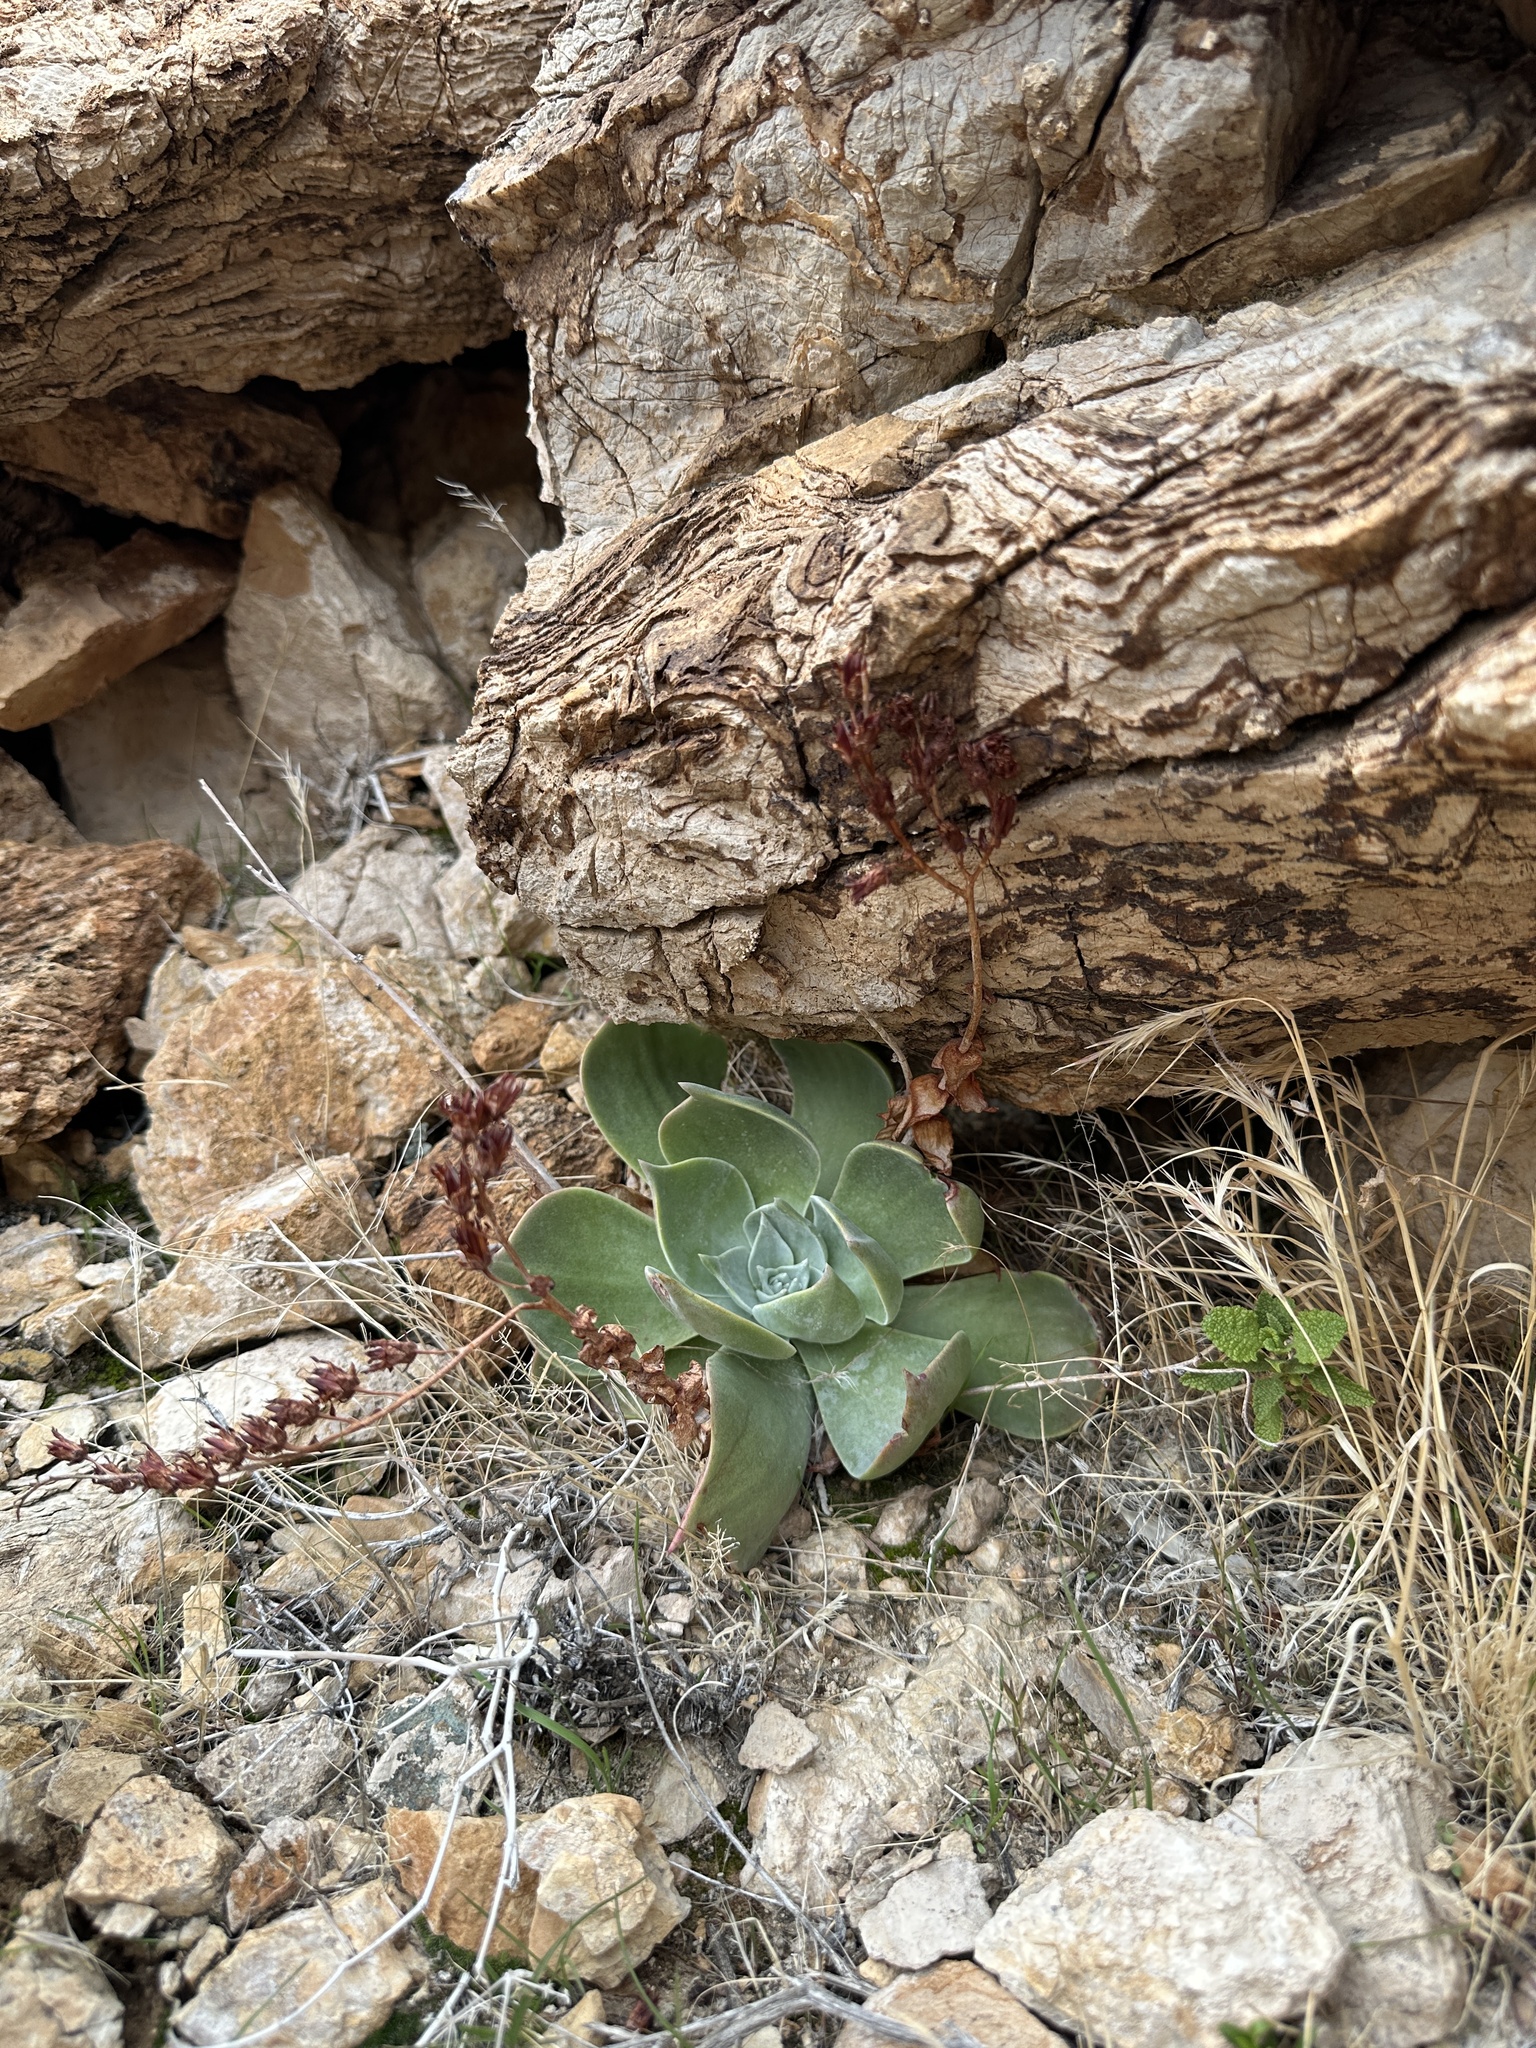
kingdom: Plantae
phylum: Tracheophyta
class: Magnoliopsida
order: Saxifragales
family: Crassulaceae
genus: Dudleya
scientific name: Dudleya arizonica
